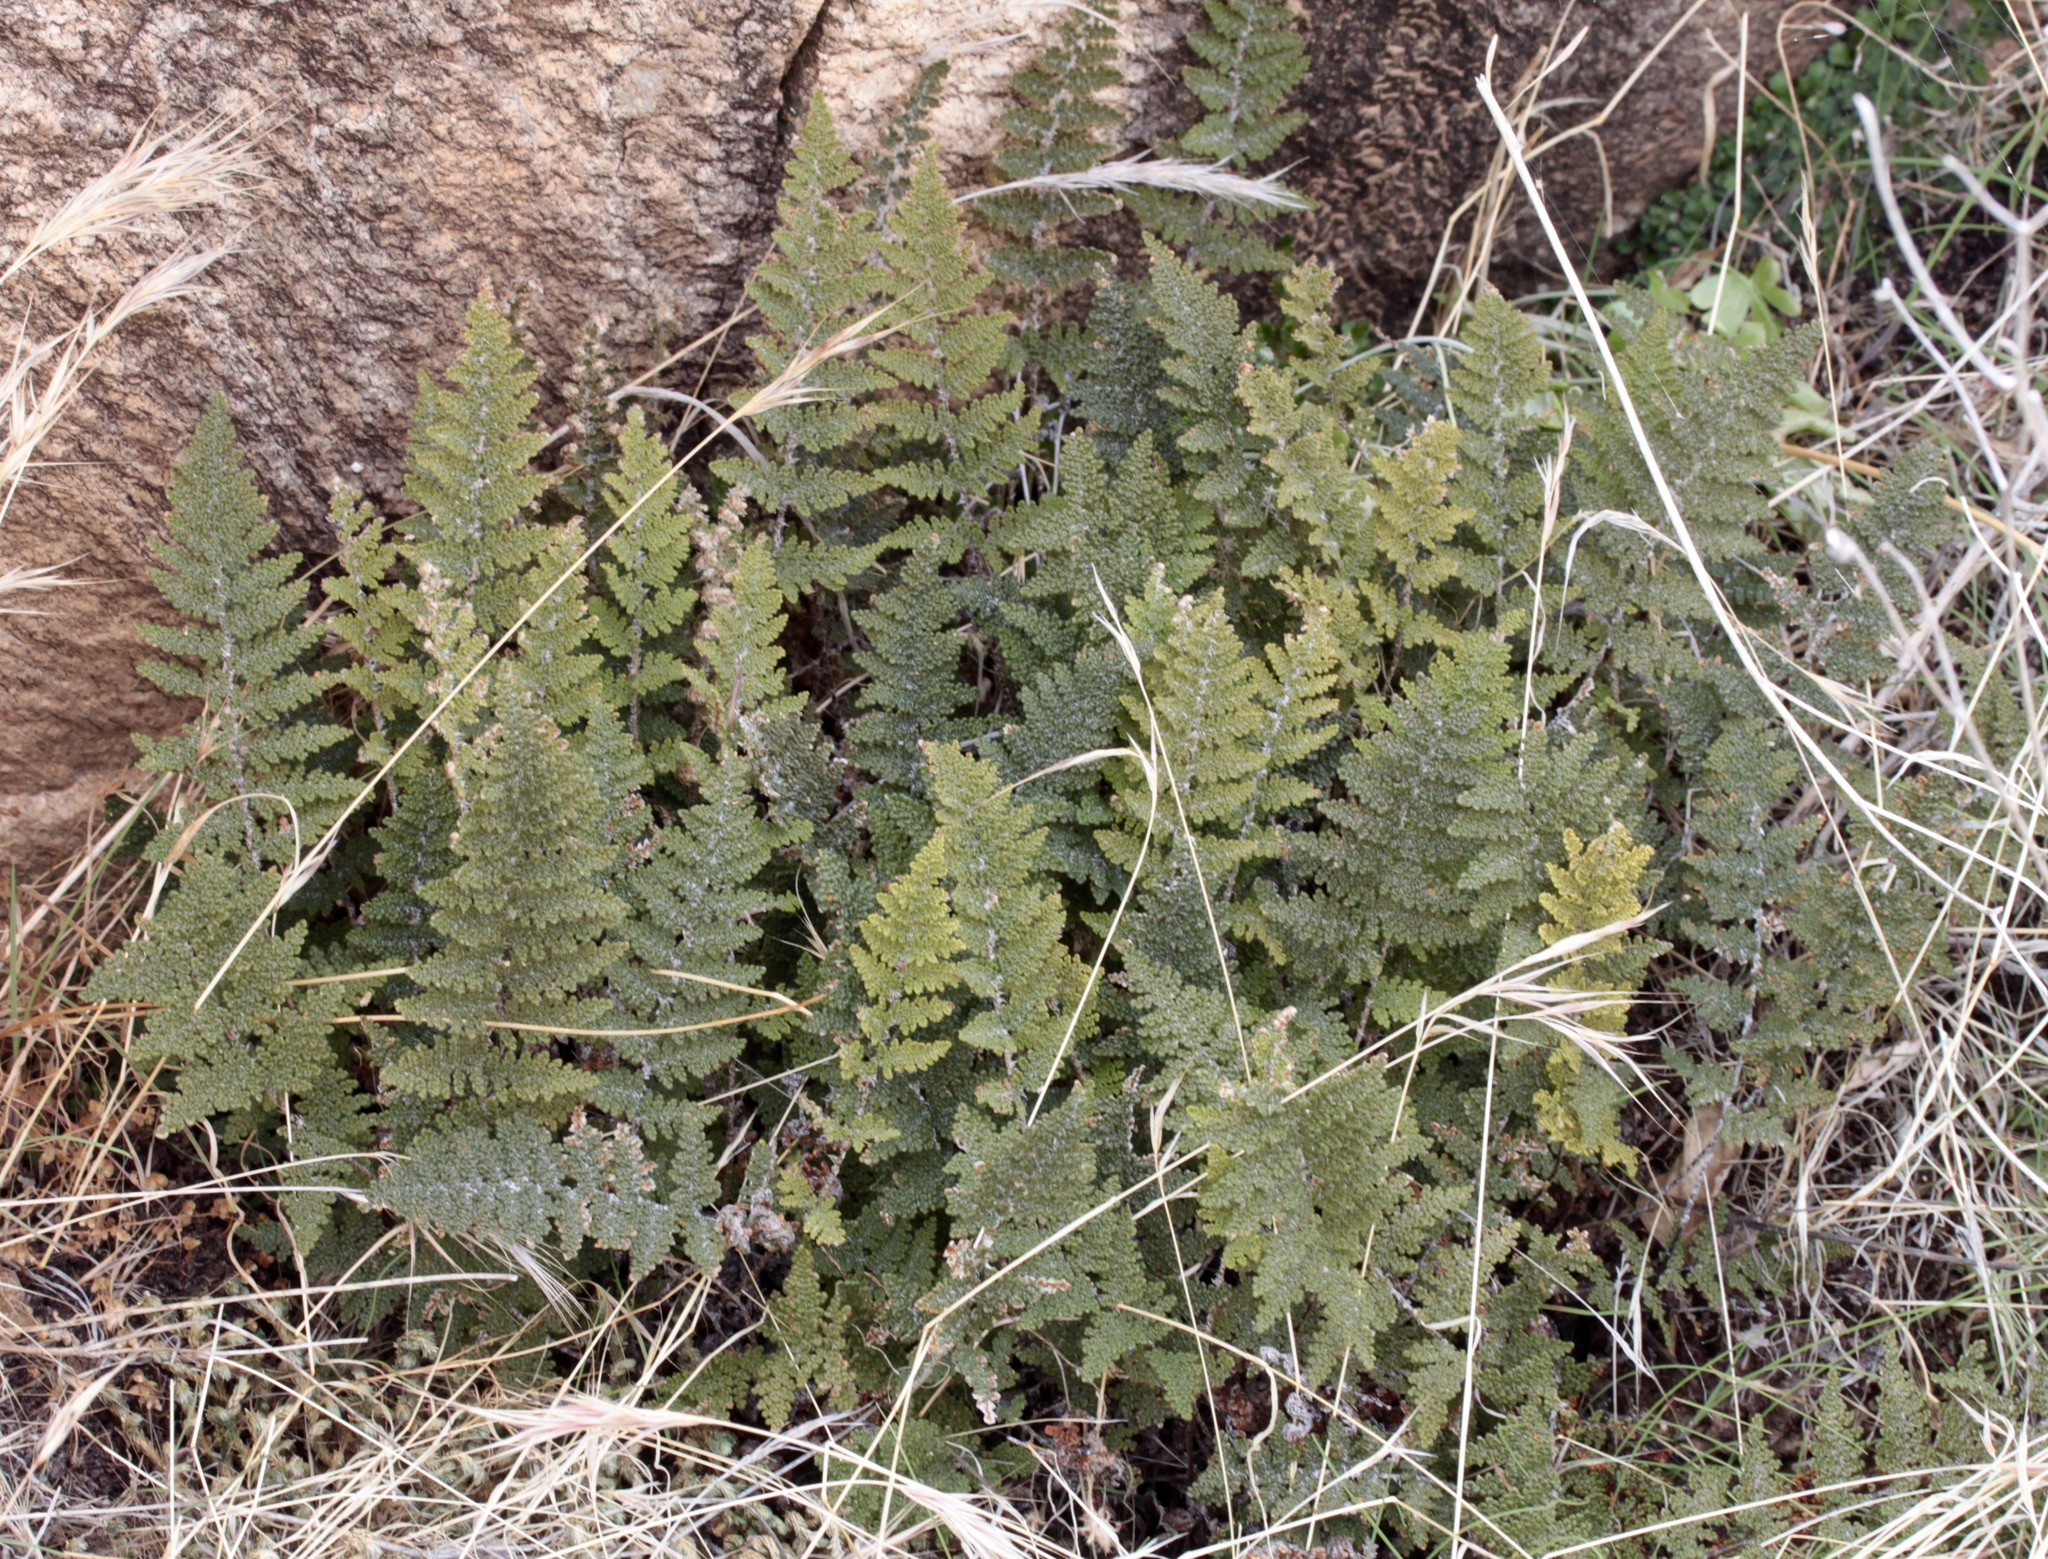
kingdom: Plantae
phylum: Tracheophyta
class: Polypodiopsida
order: Polypodiales
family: Pteridaceae
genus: Myriopteris
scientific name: Myriopteris covillei
